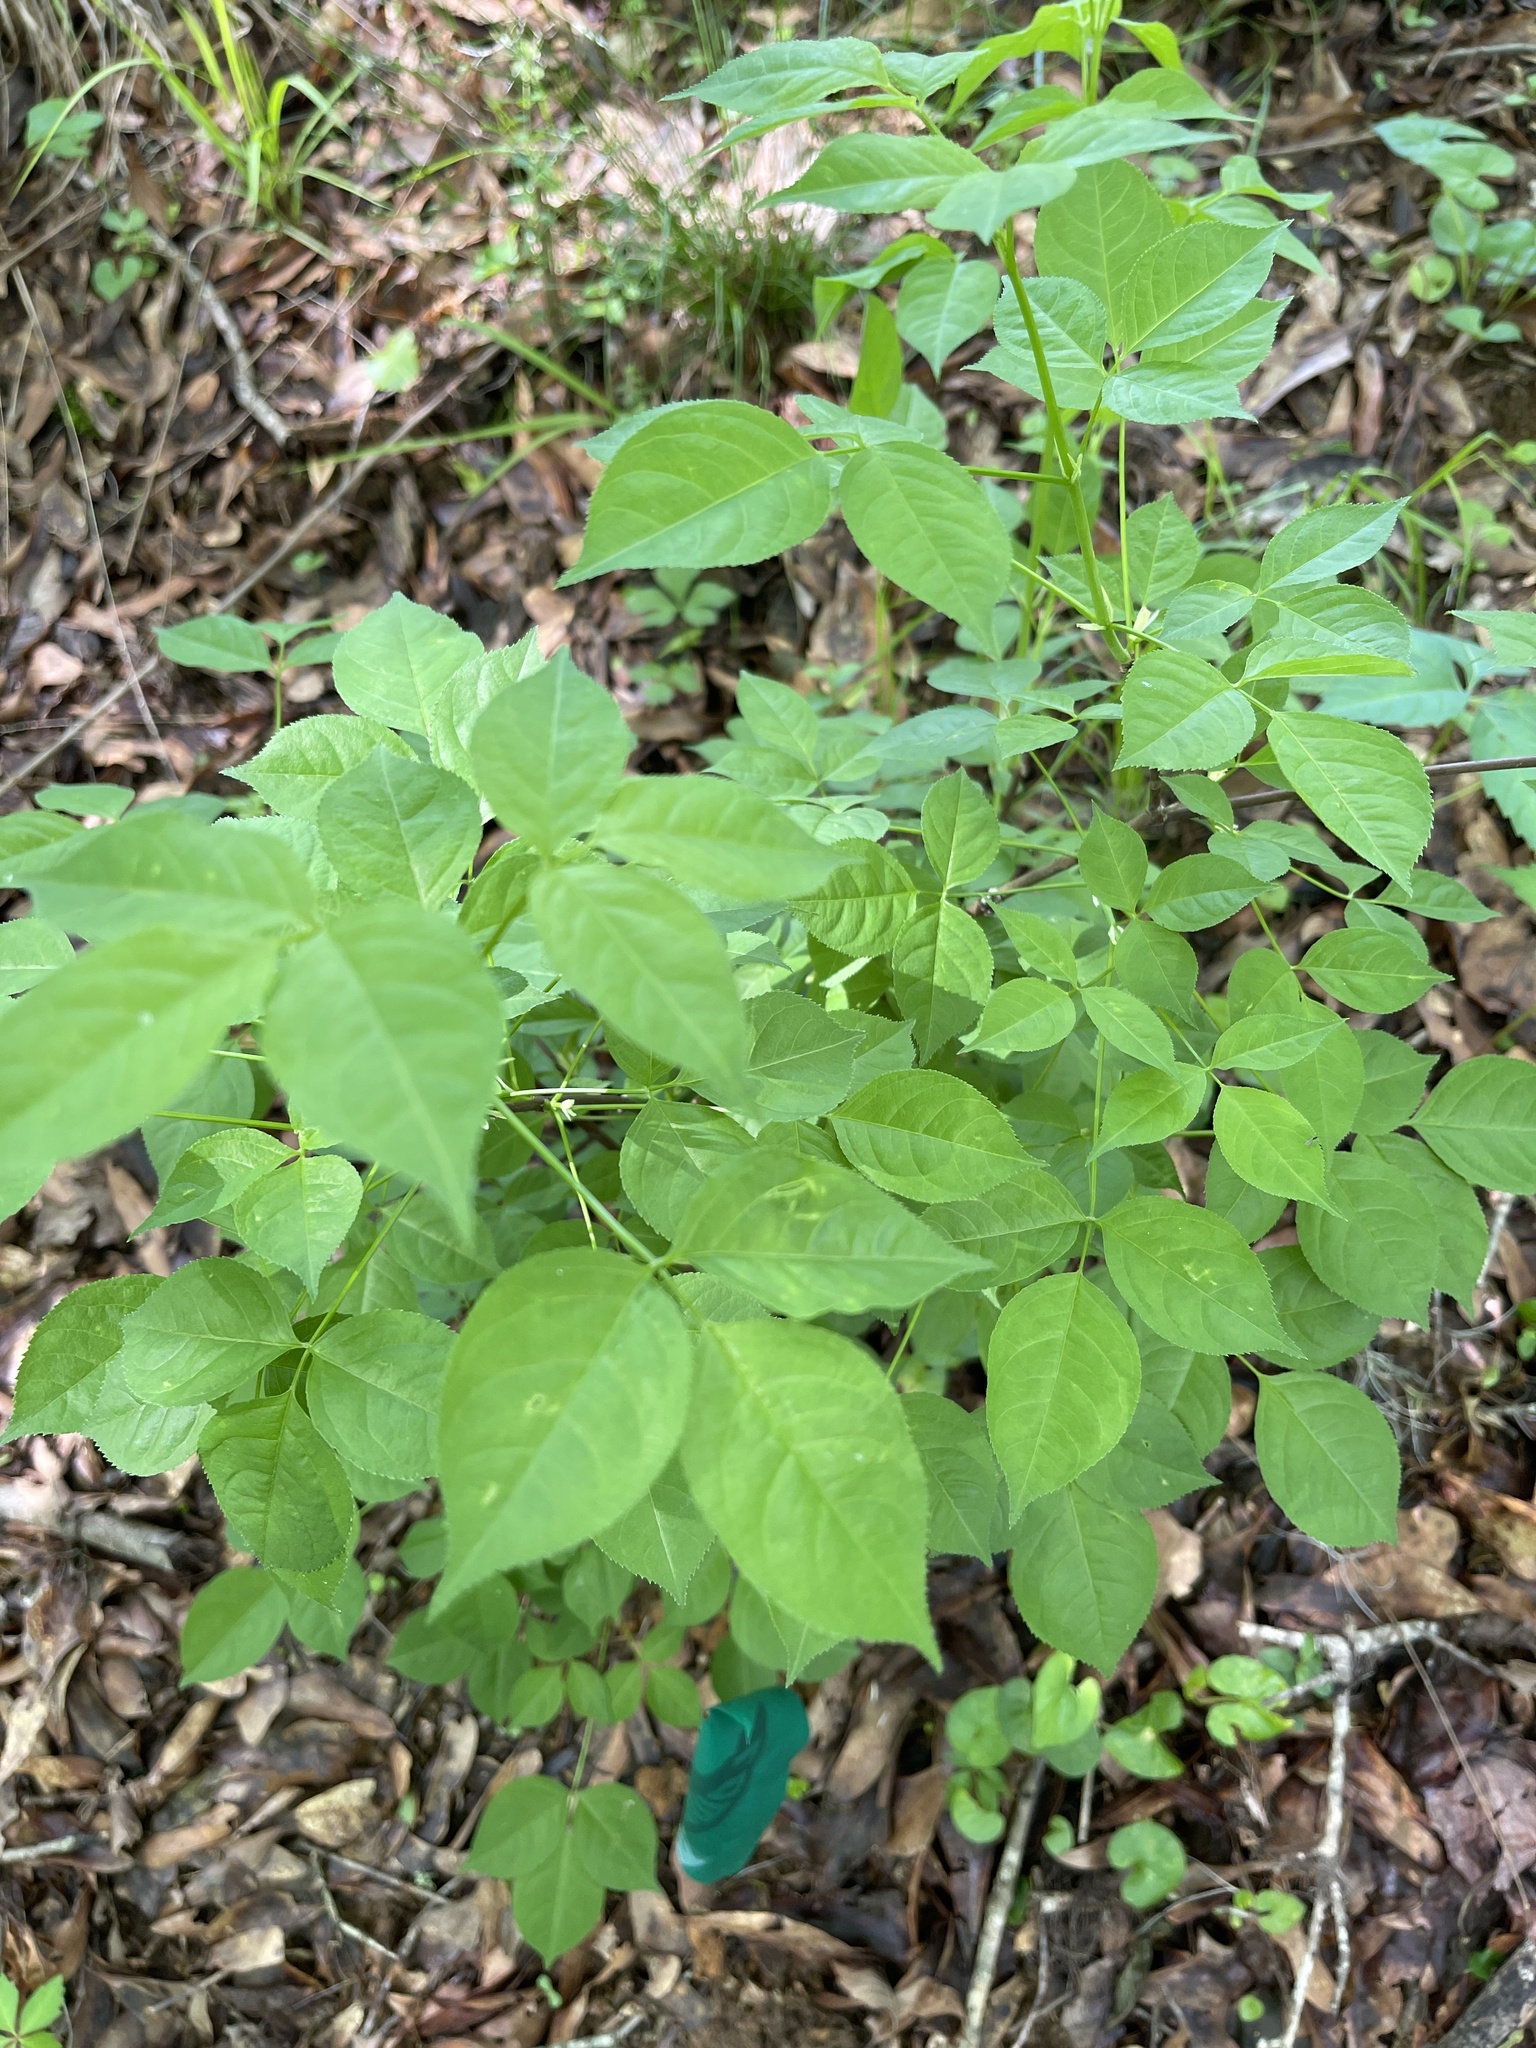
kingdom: Plantae
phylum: Tracheophyta
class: Magnoliopsida
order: Crossosomatales
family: Staphyleaceae
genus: Staphylea
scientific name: Staphylea trifolia
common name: American bladdernut
